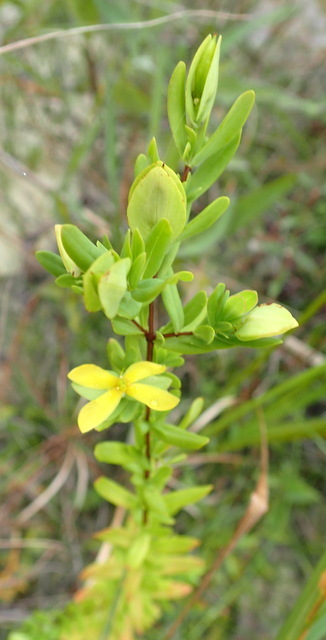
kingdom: Plantae
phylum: Tracheophyta
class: Magnoliopsida
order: Malpighiales
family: Hypericaceae
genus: Hypericum
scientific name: Hypericum crux-andreae
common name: St.-peter's-wort
